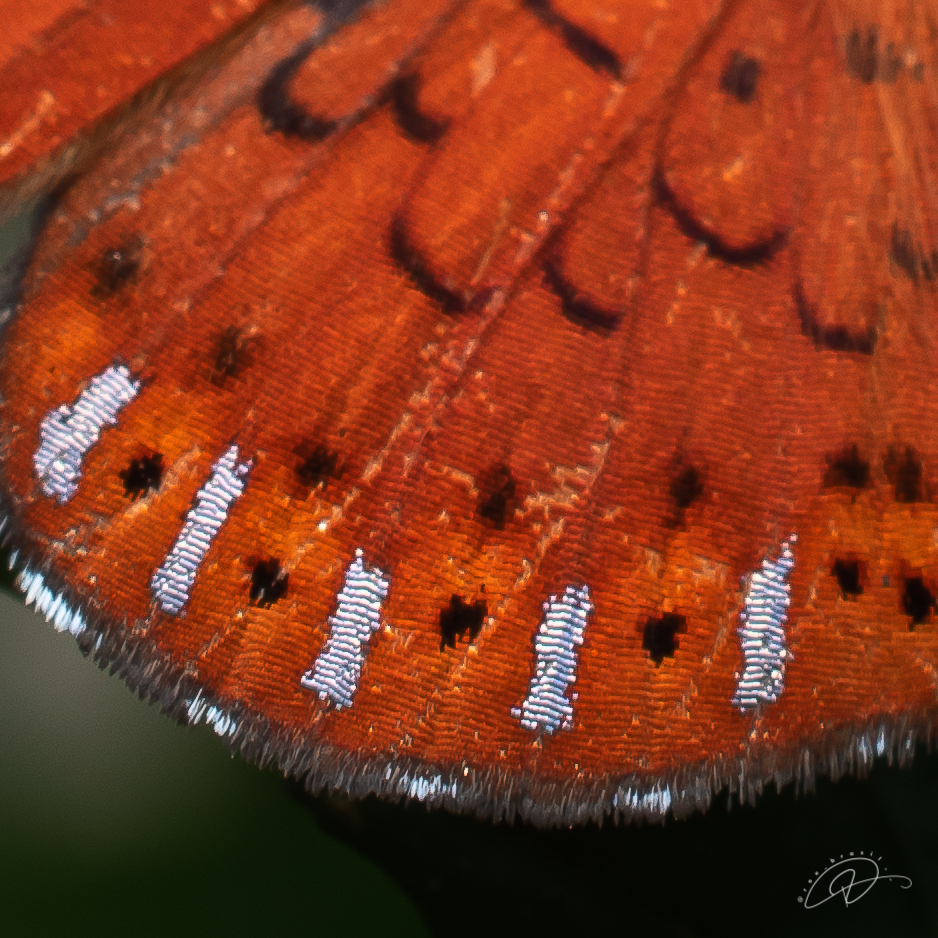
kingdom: Animalia
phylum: Arthropoda
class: Insecta
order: Lepidoptera
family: Riodinidae
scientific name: Riodinidae
